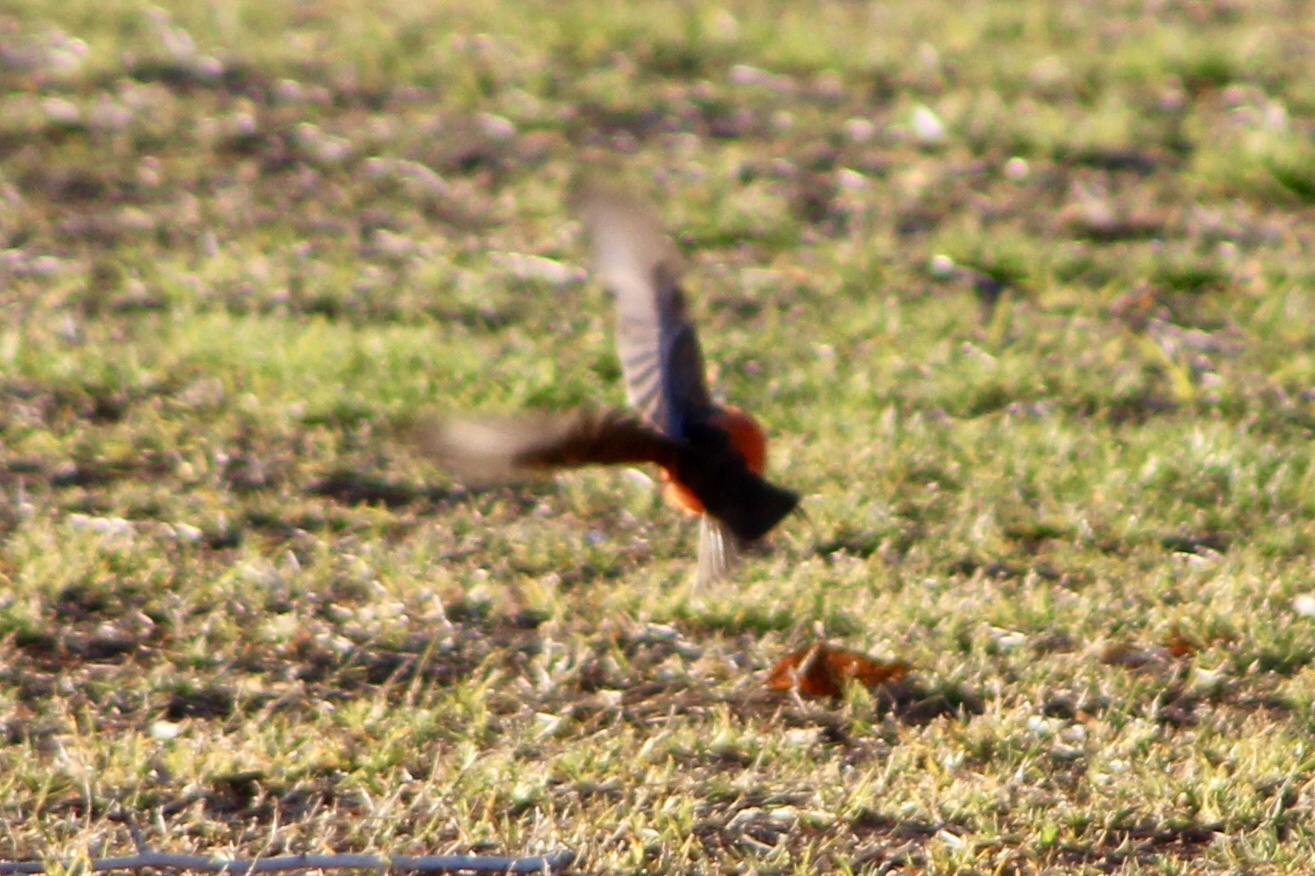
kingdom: Animalia
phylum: Chordata
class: Aves
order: Passeriformes
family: Tyrannidae
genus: Pyrocephalus
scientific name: Pyrocephalus rubinus
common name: Vermilion flycatcher
